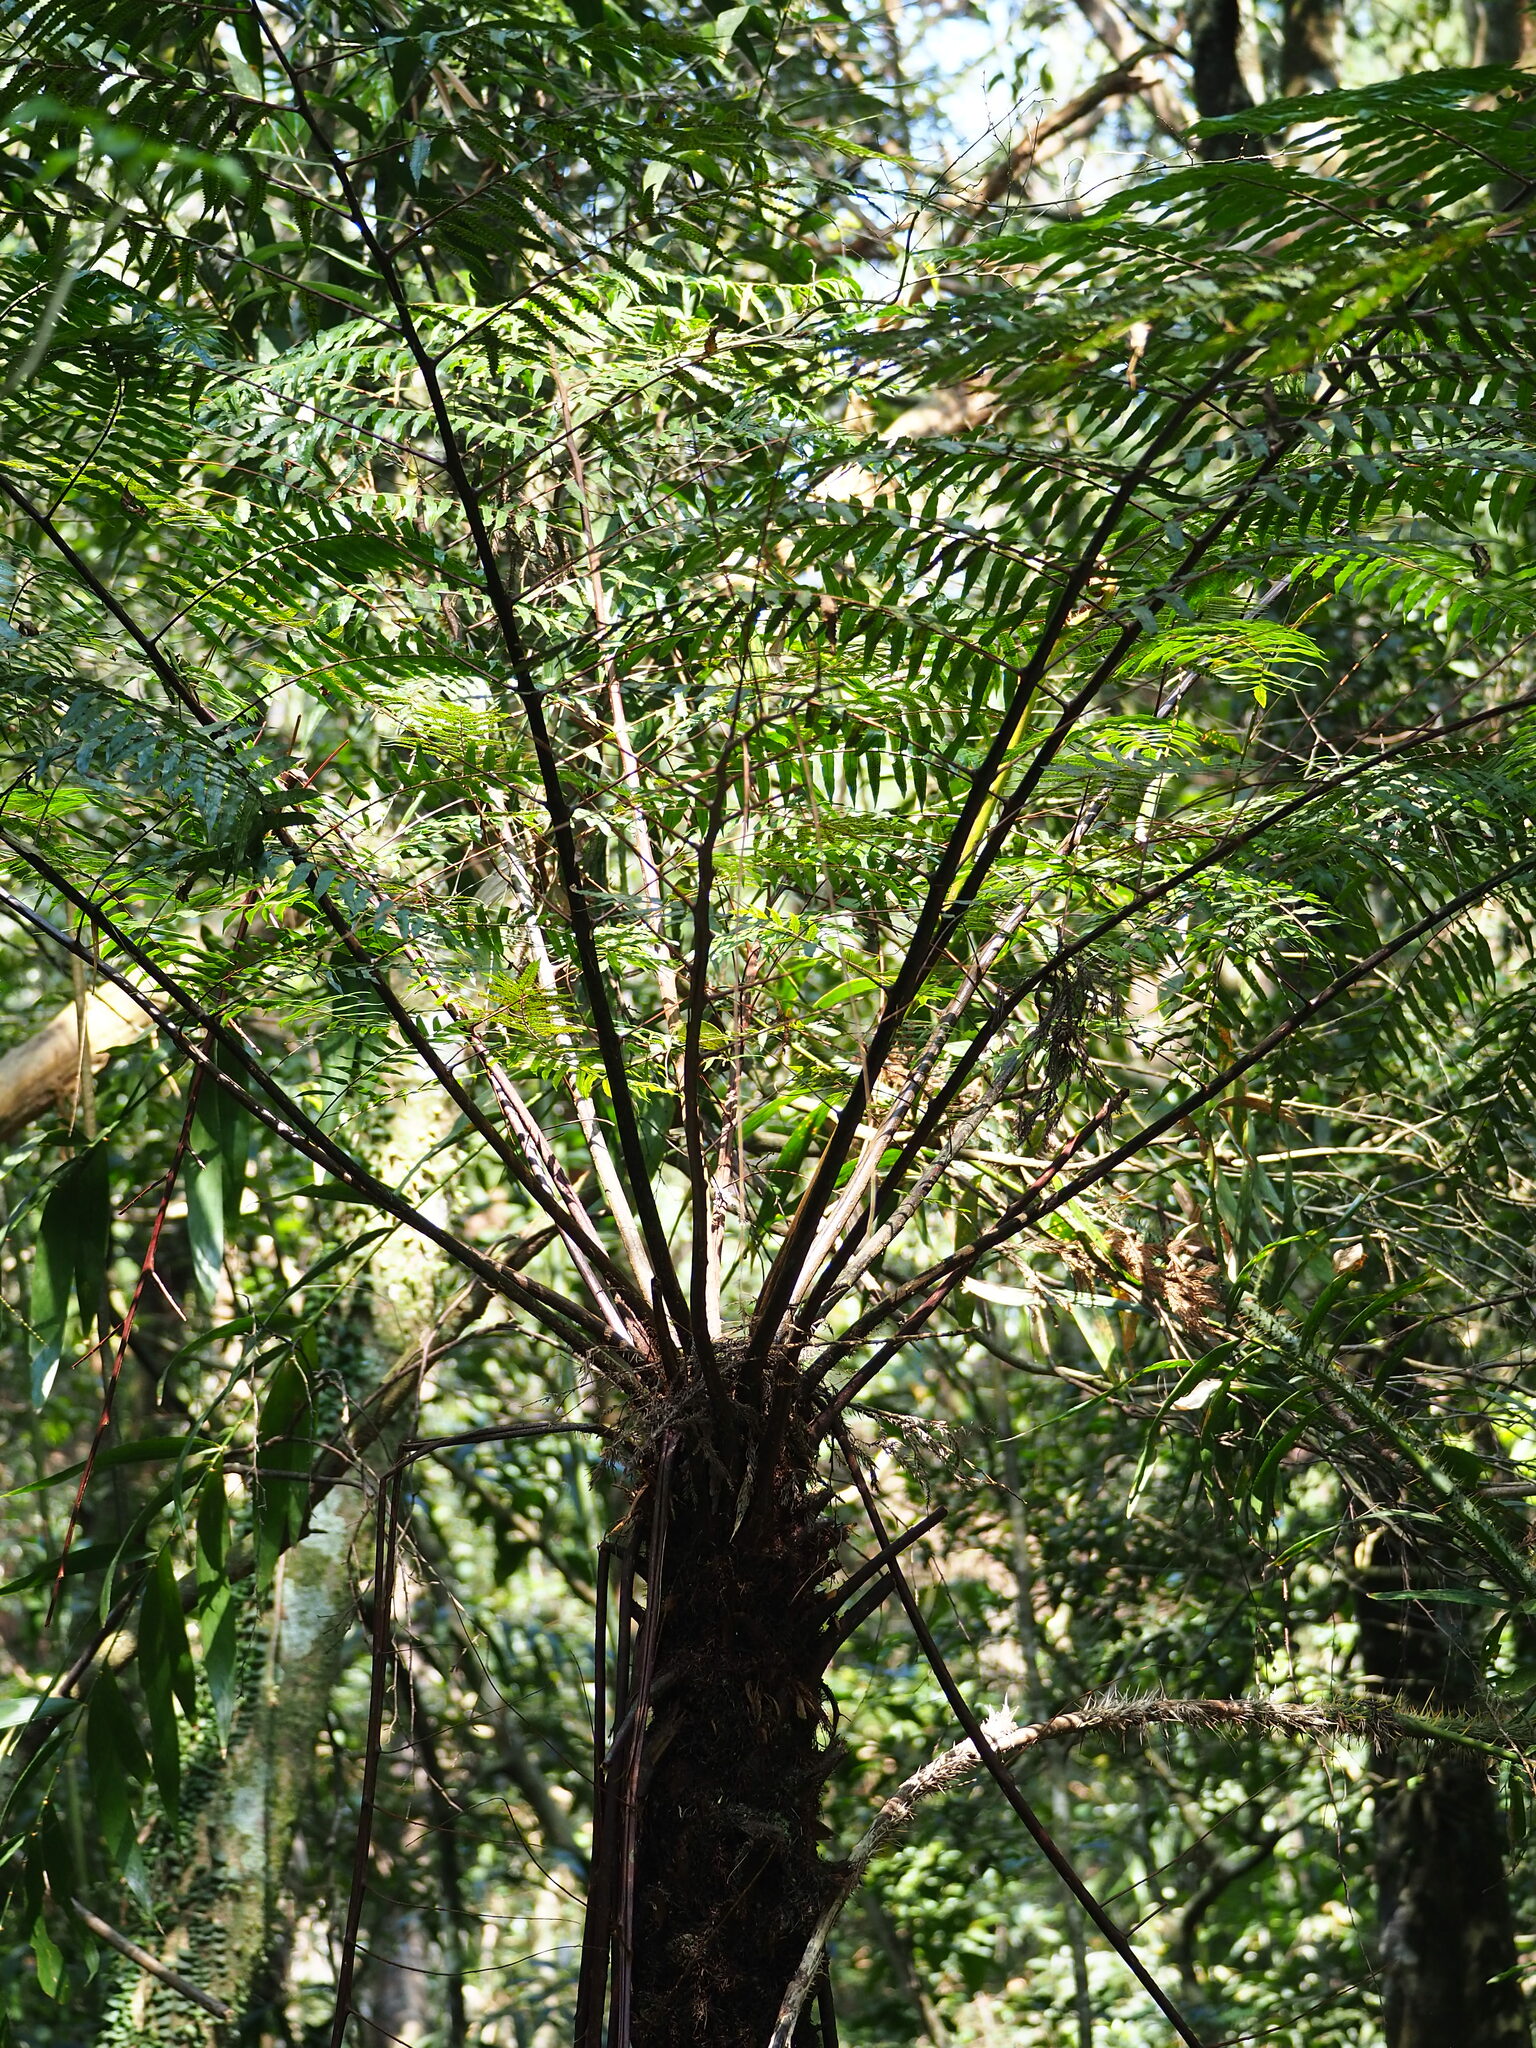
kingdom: Plantae
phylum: Tracheophyta
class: Polypodiopsida
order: Cyatheales
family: Cyatheaceae
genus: Alsophila
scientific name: Alsophila spinulosa
